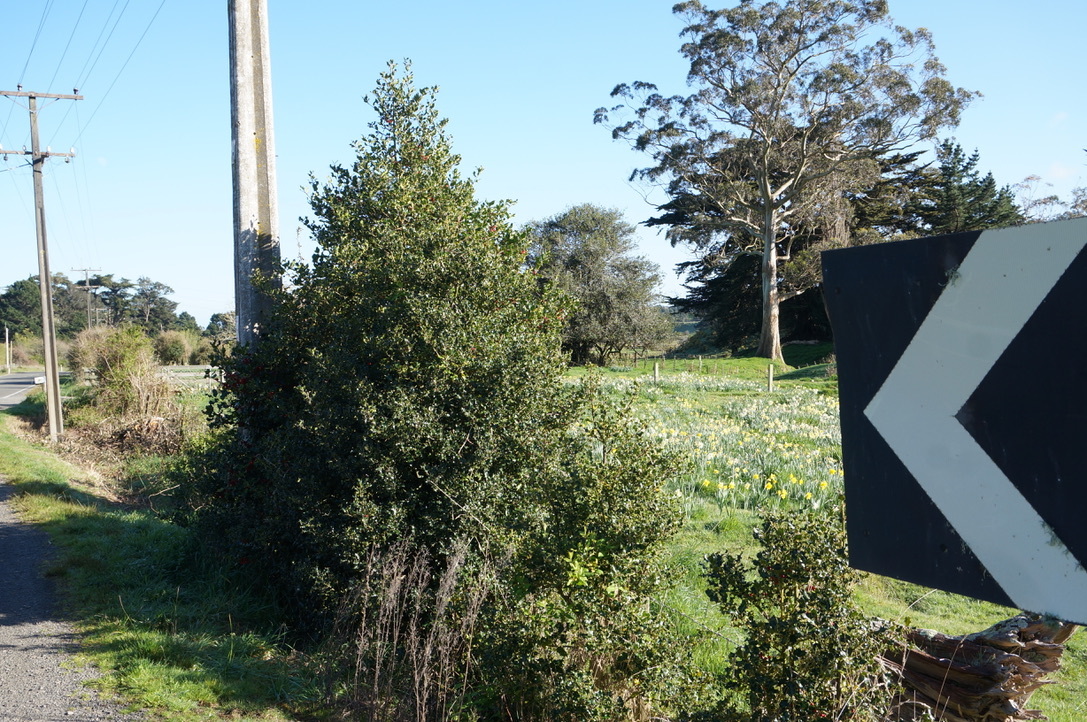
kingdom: Plantae
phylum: Tracheophyta
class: Magnoliopsida
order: Aquifoliales
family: Aquifoliaceae
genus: Ilex
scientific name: Ilex aquifolium
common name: English holly
